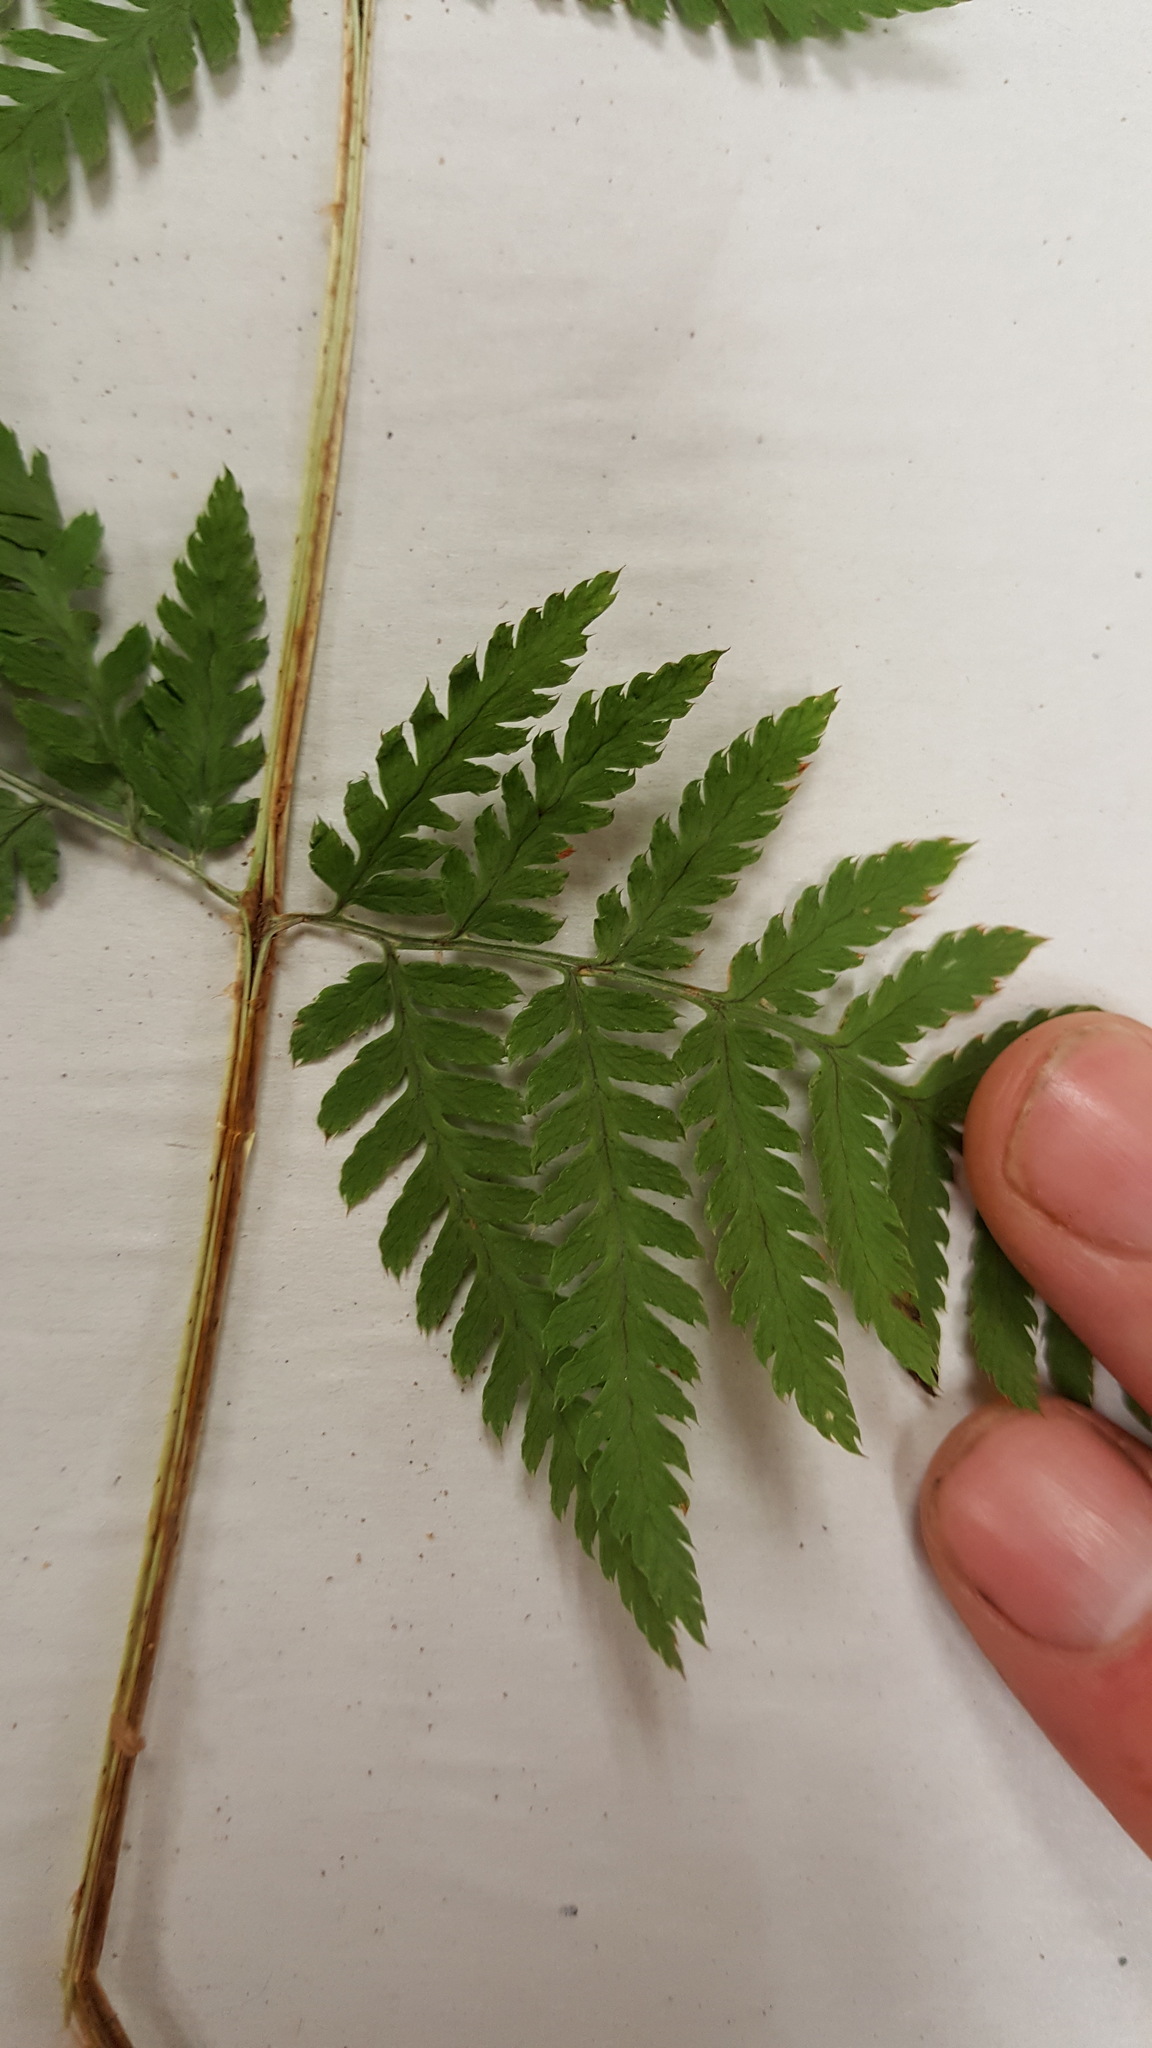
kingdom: Plantae
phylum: Tracheophyta
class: Polypodiopsida
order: Polypodiales
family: Dryopteridaceae
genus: Dryopteris
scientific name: Dryopteris campyloptera
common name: Mountain wood fern
